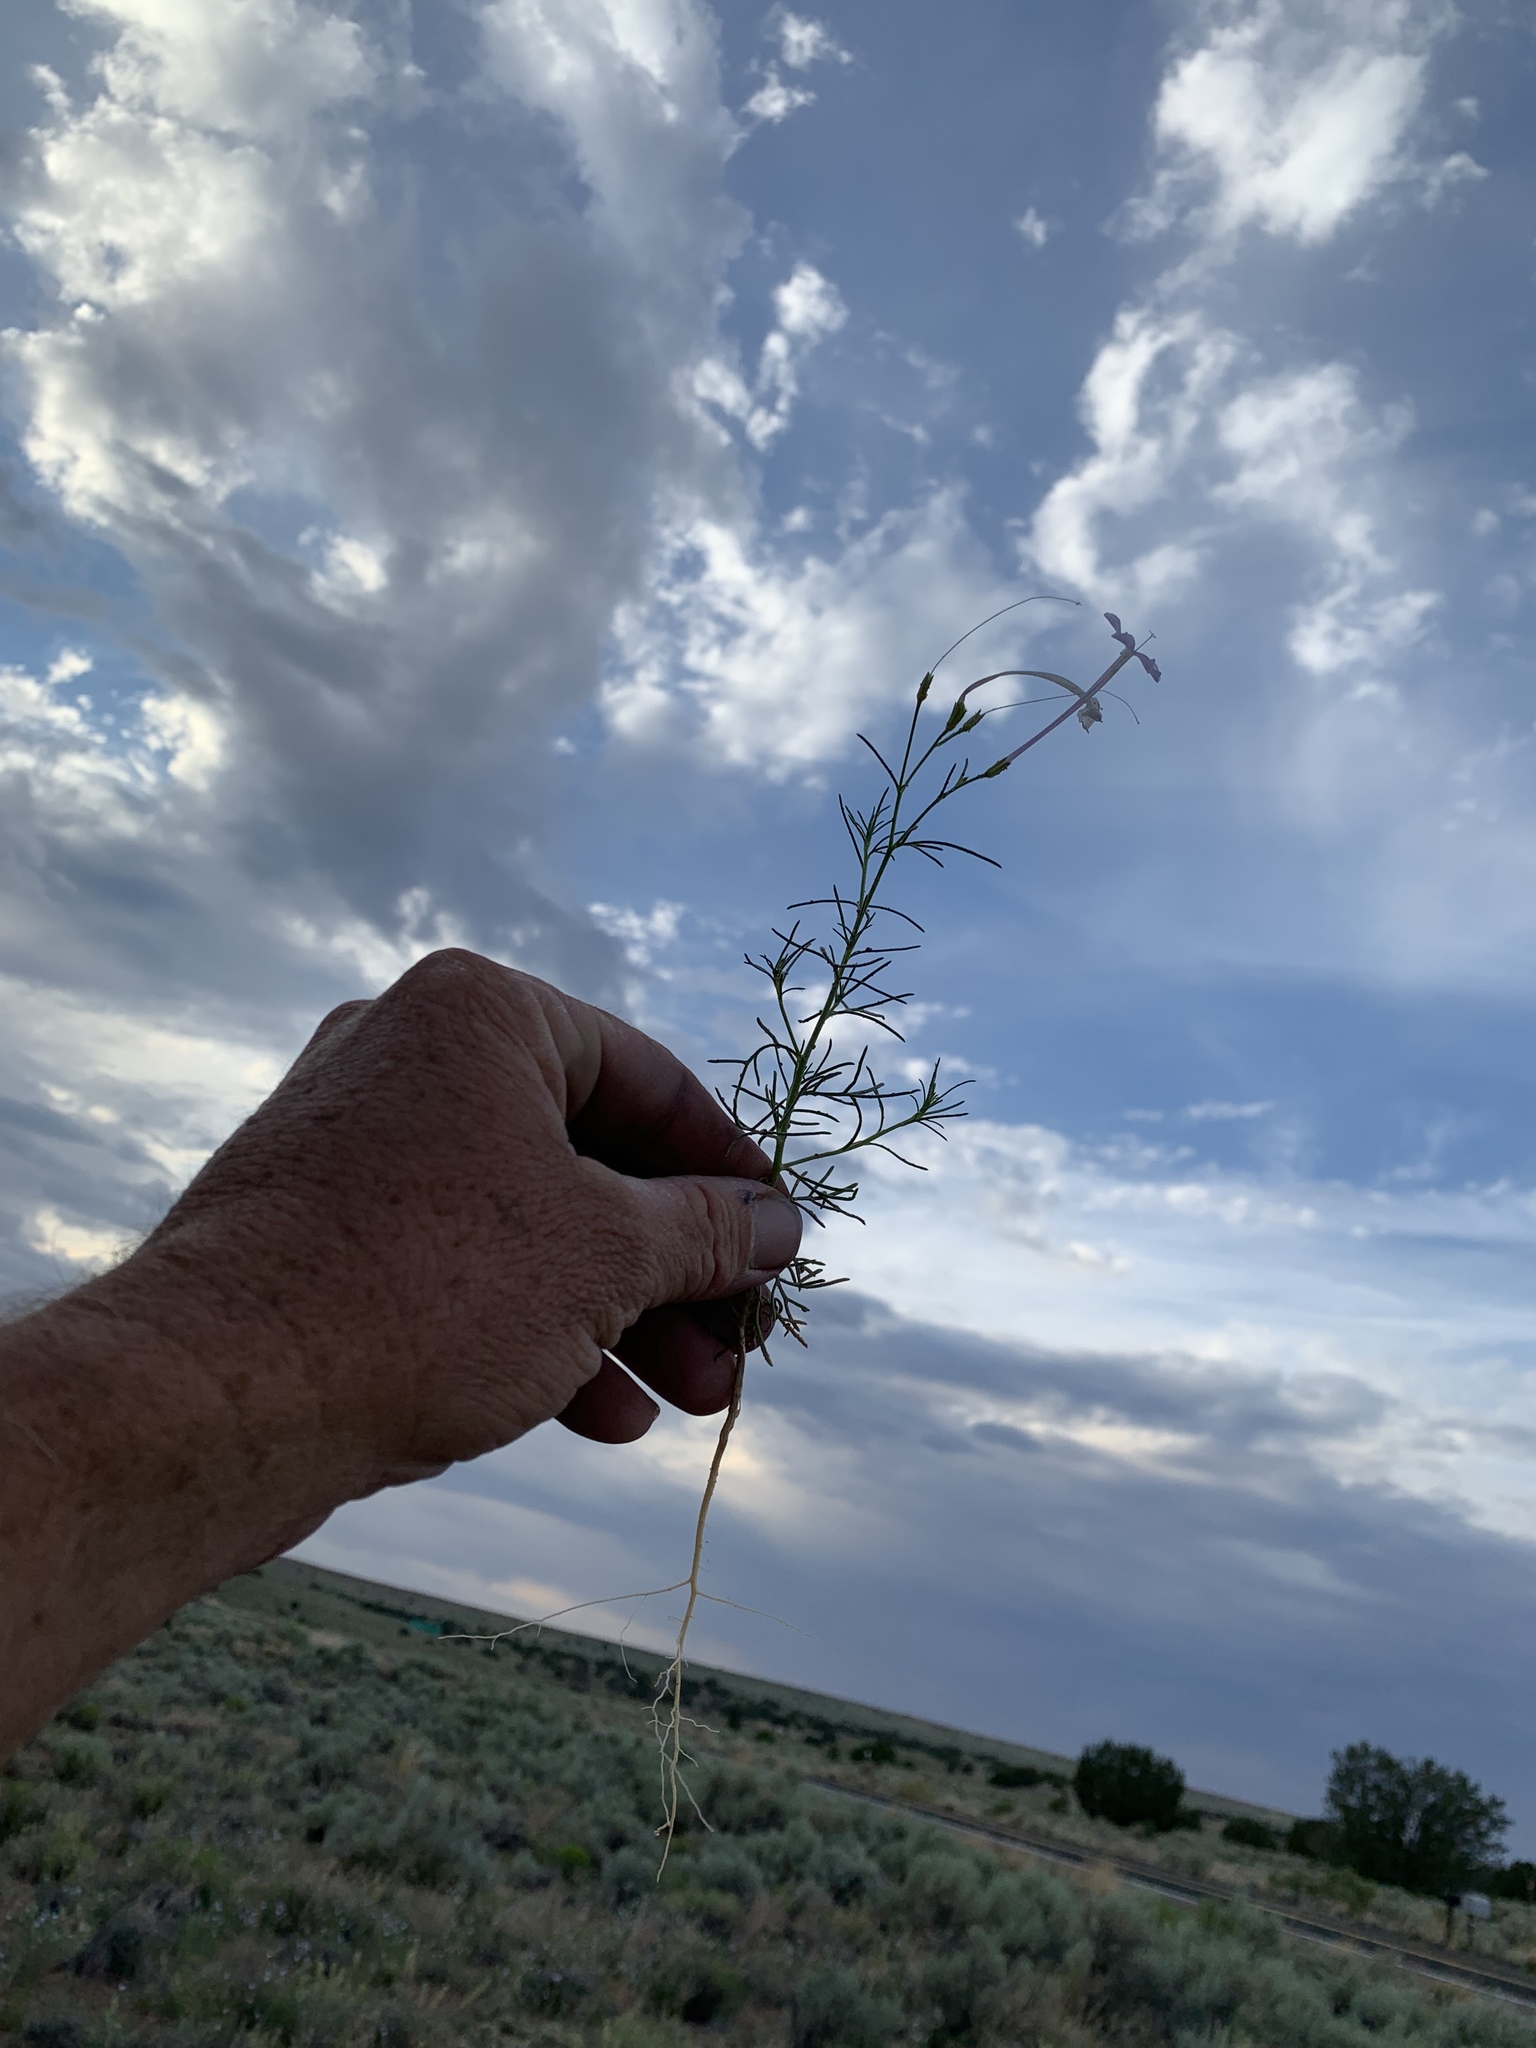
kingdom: Plantae
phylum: Tracheophyta
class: Magnoliopsida
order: Ericales
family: Polemoniaceae
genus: Ipomopsis
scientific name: Ipomopsis longiflora
